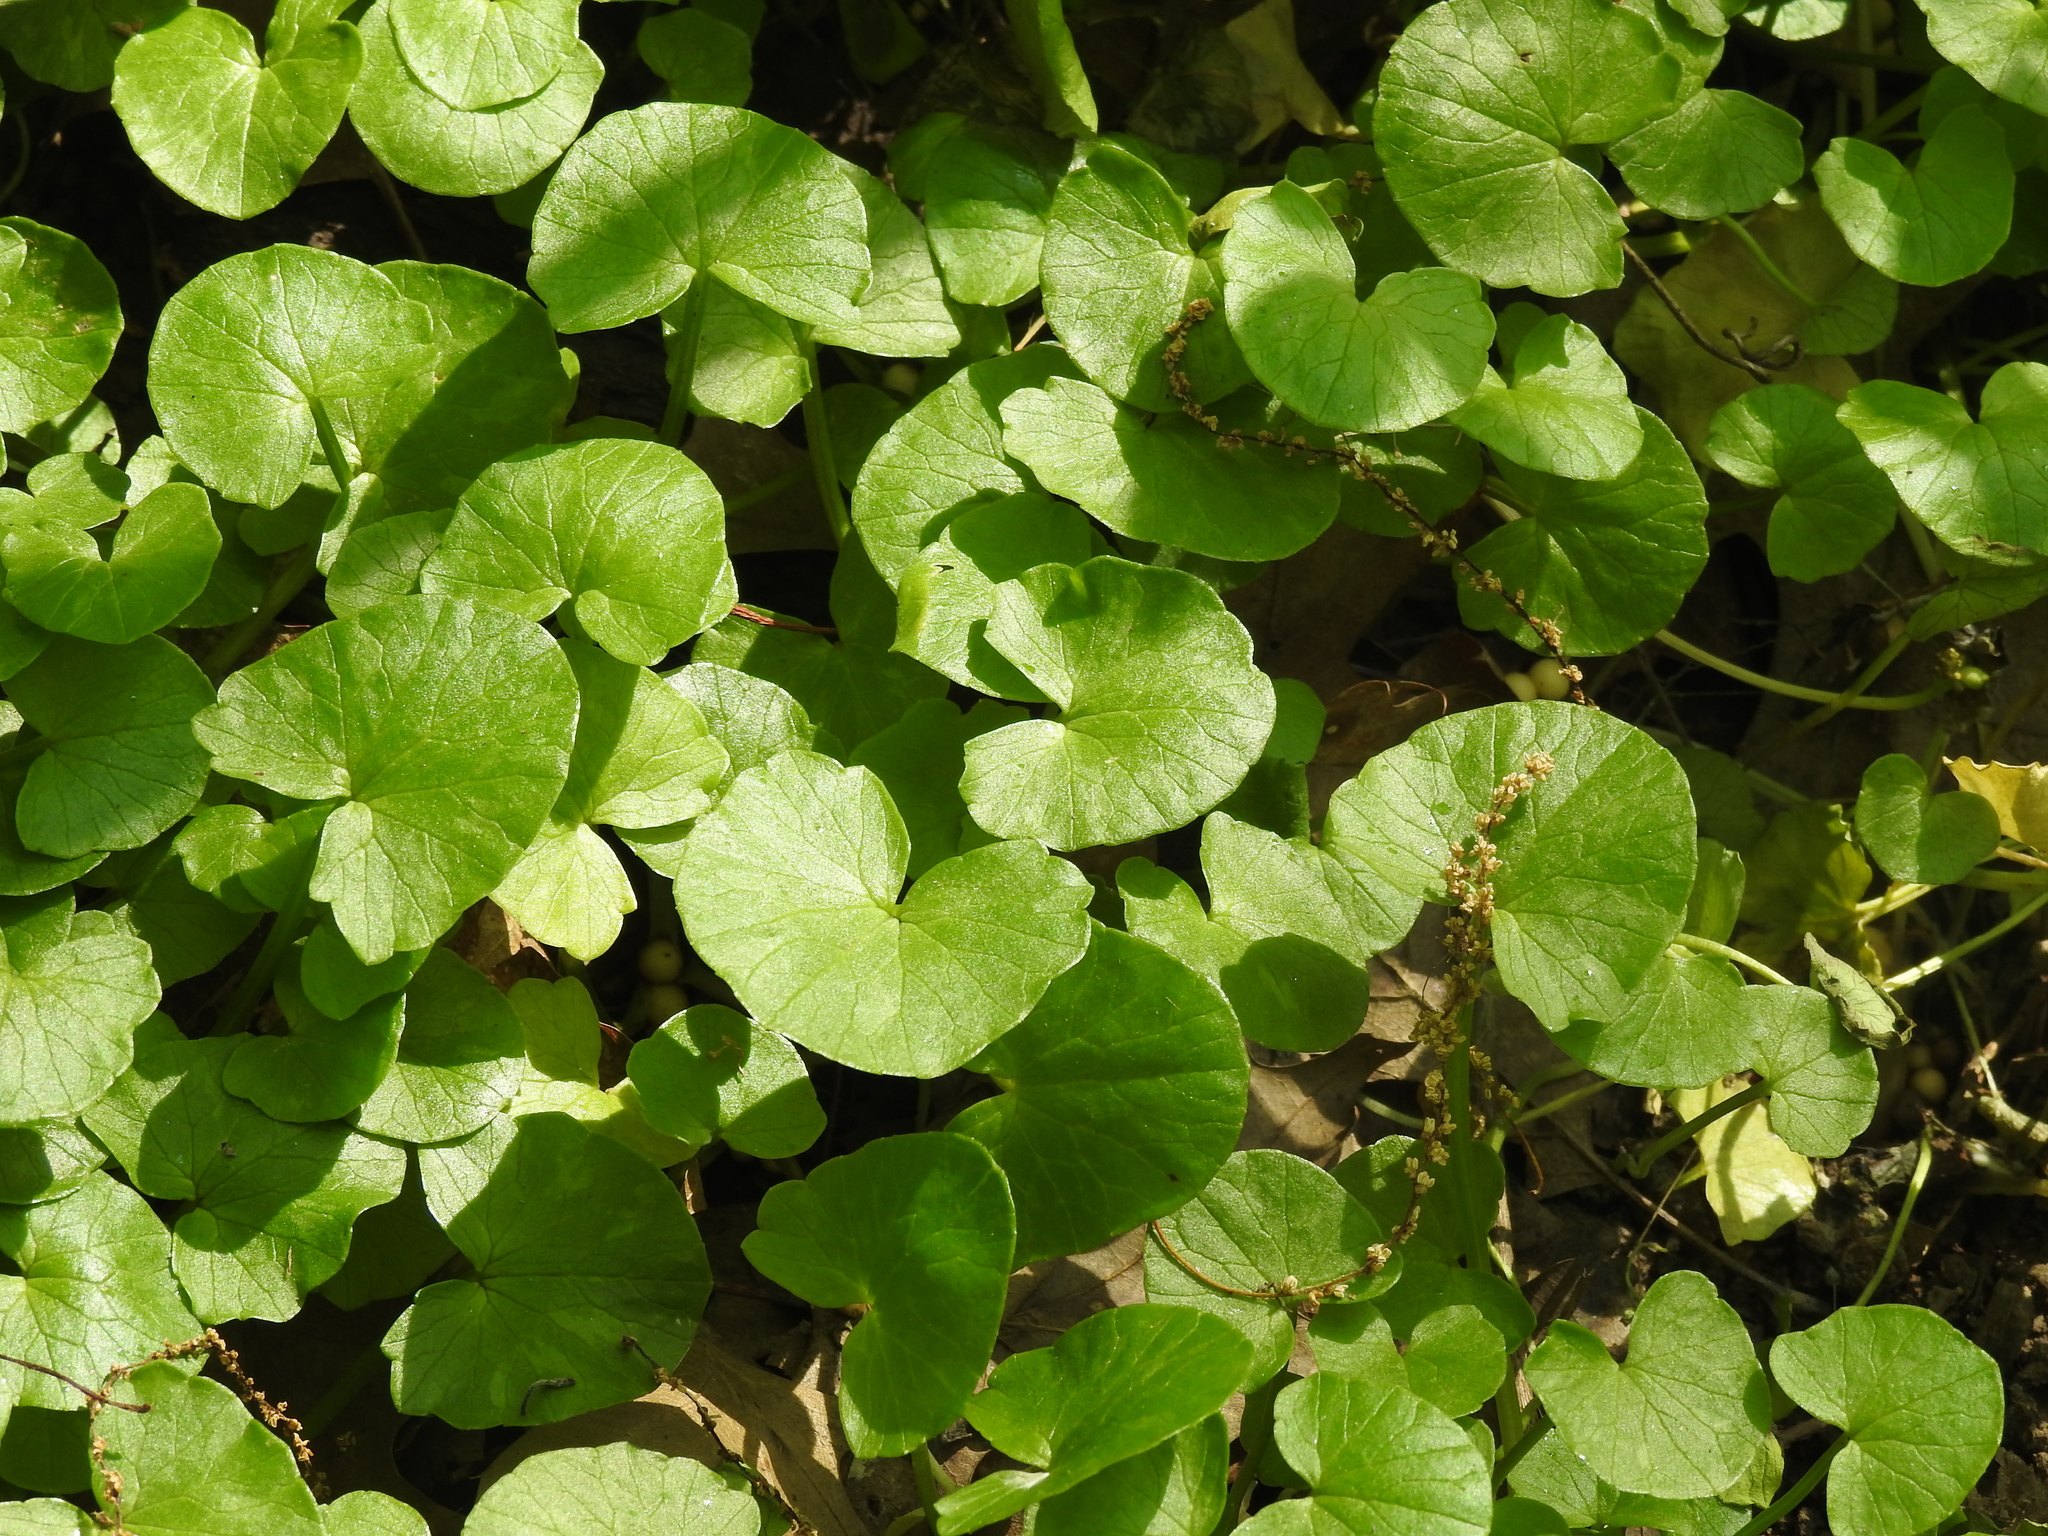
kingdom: Plantae
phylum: Tracheophyta
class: Magnoliopsida
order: Ranunculales
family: Ranunculaceae
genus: Ficaria
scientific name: Ficaria verna
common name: Lesser celandine
